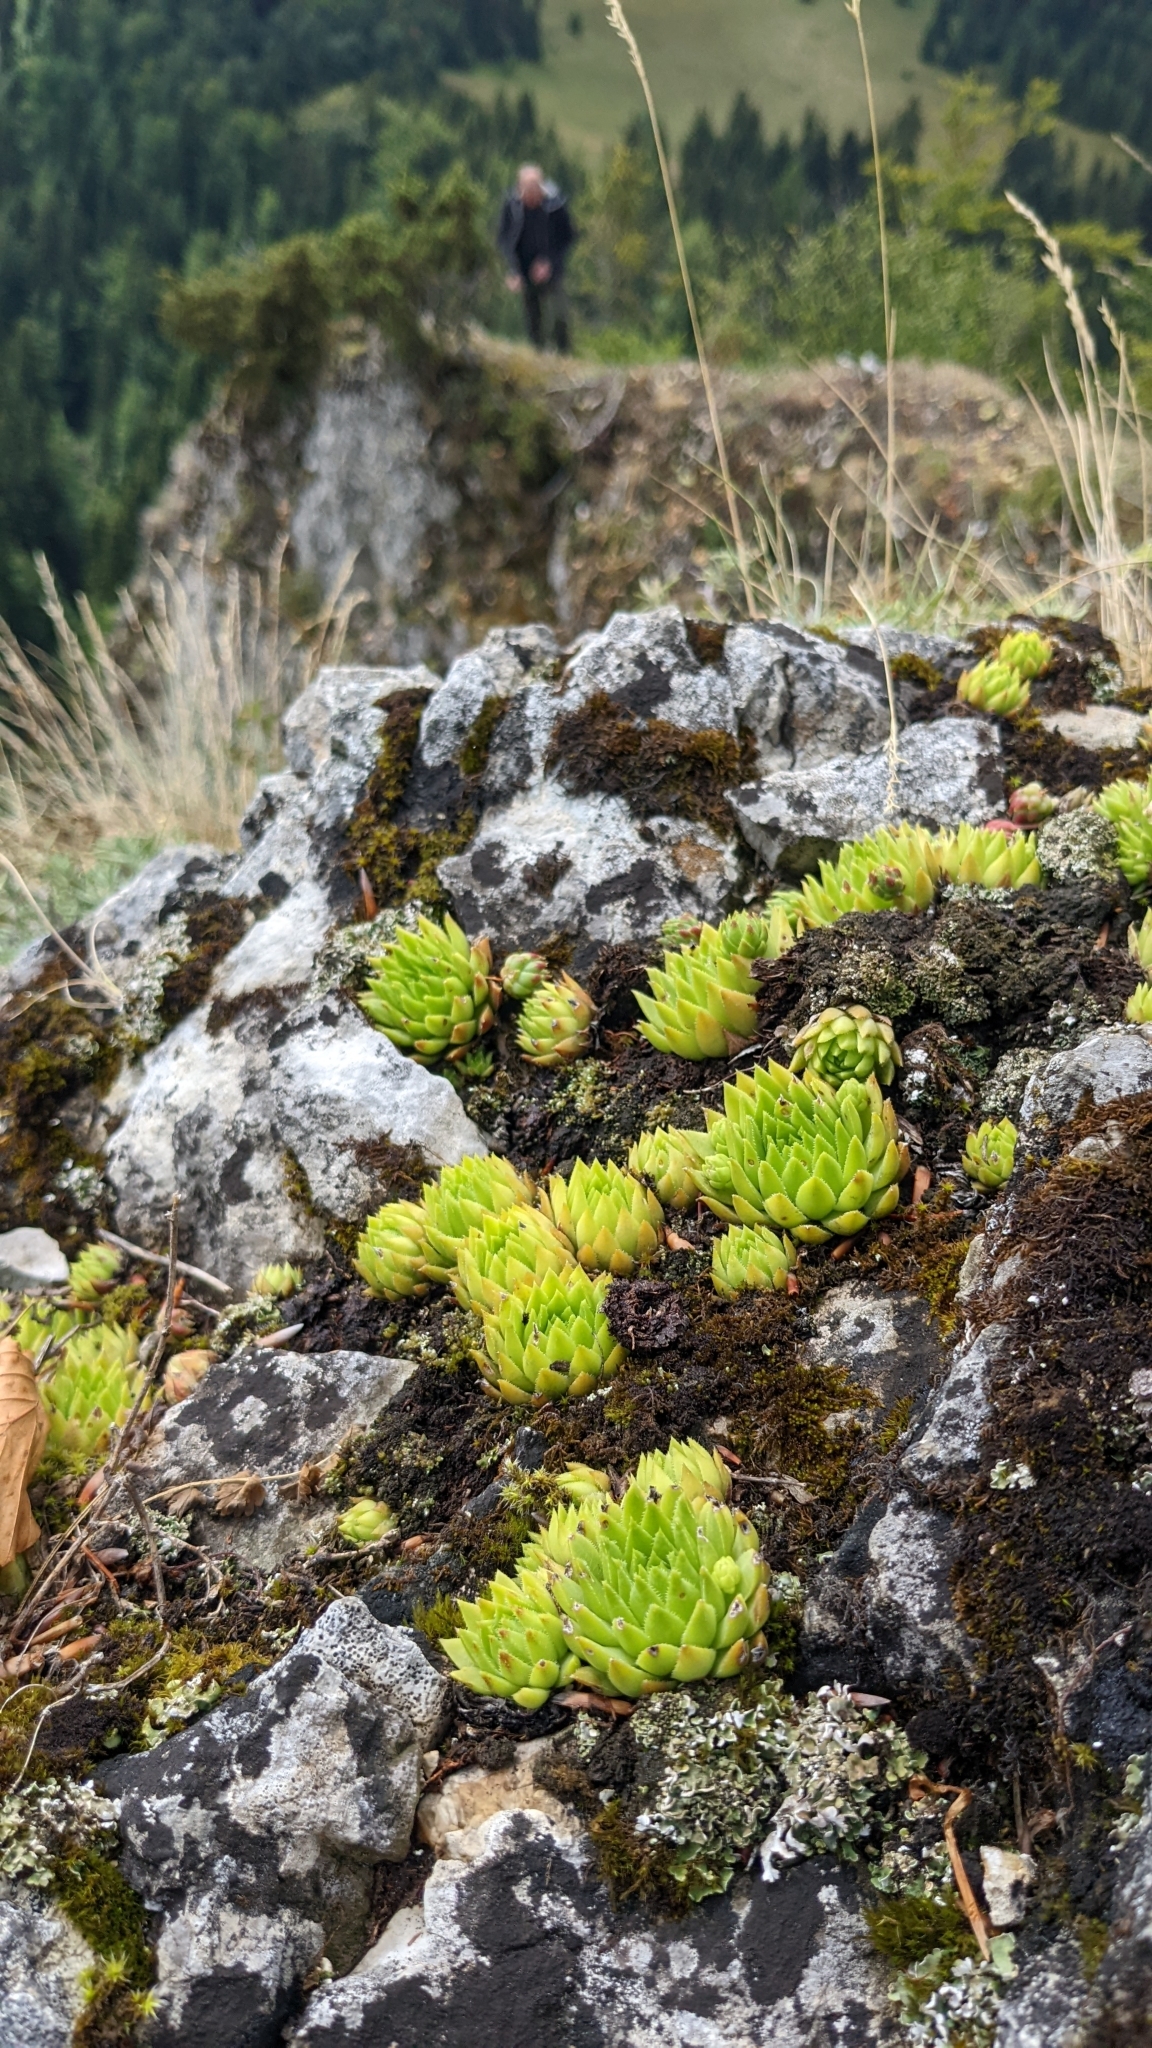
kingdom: Plantae
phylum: Tracheophyta
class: Magnoliopsida
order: Saxifragales
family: Crassulaceae
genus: Sempervivum
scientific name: Sempervivum globiferum
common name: Rolling hen-and-chicks
